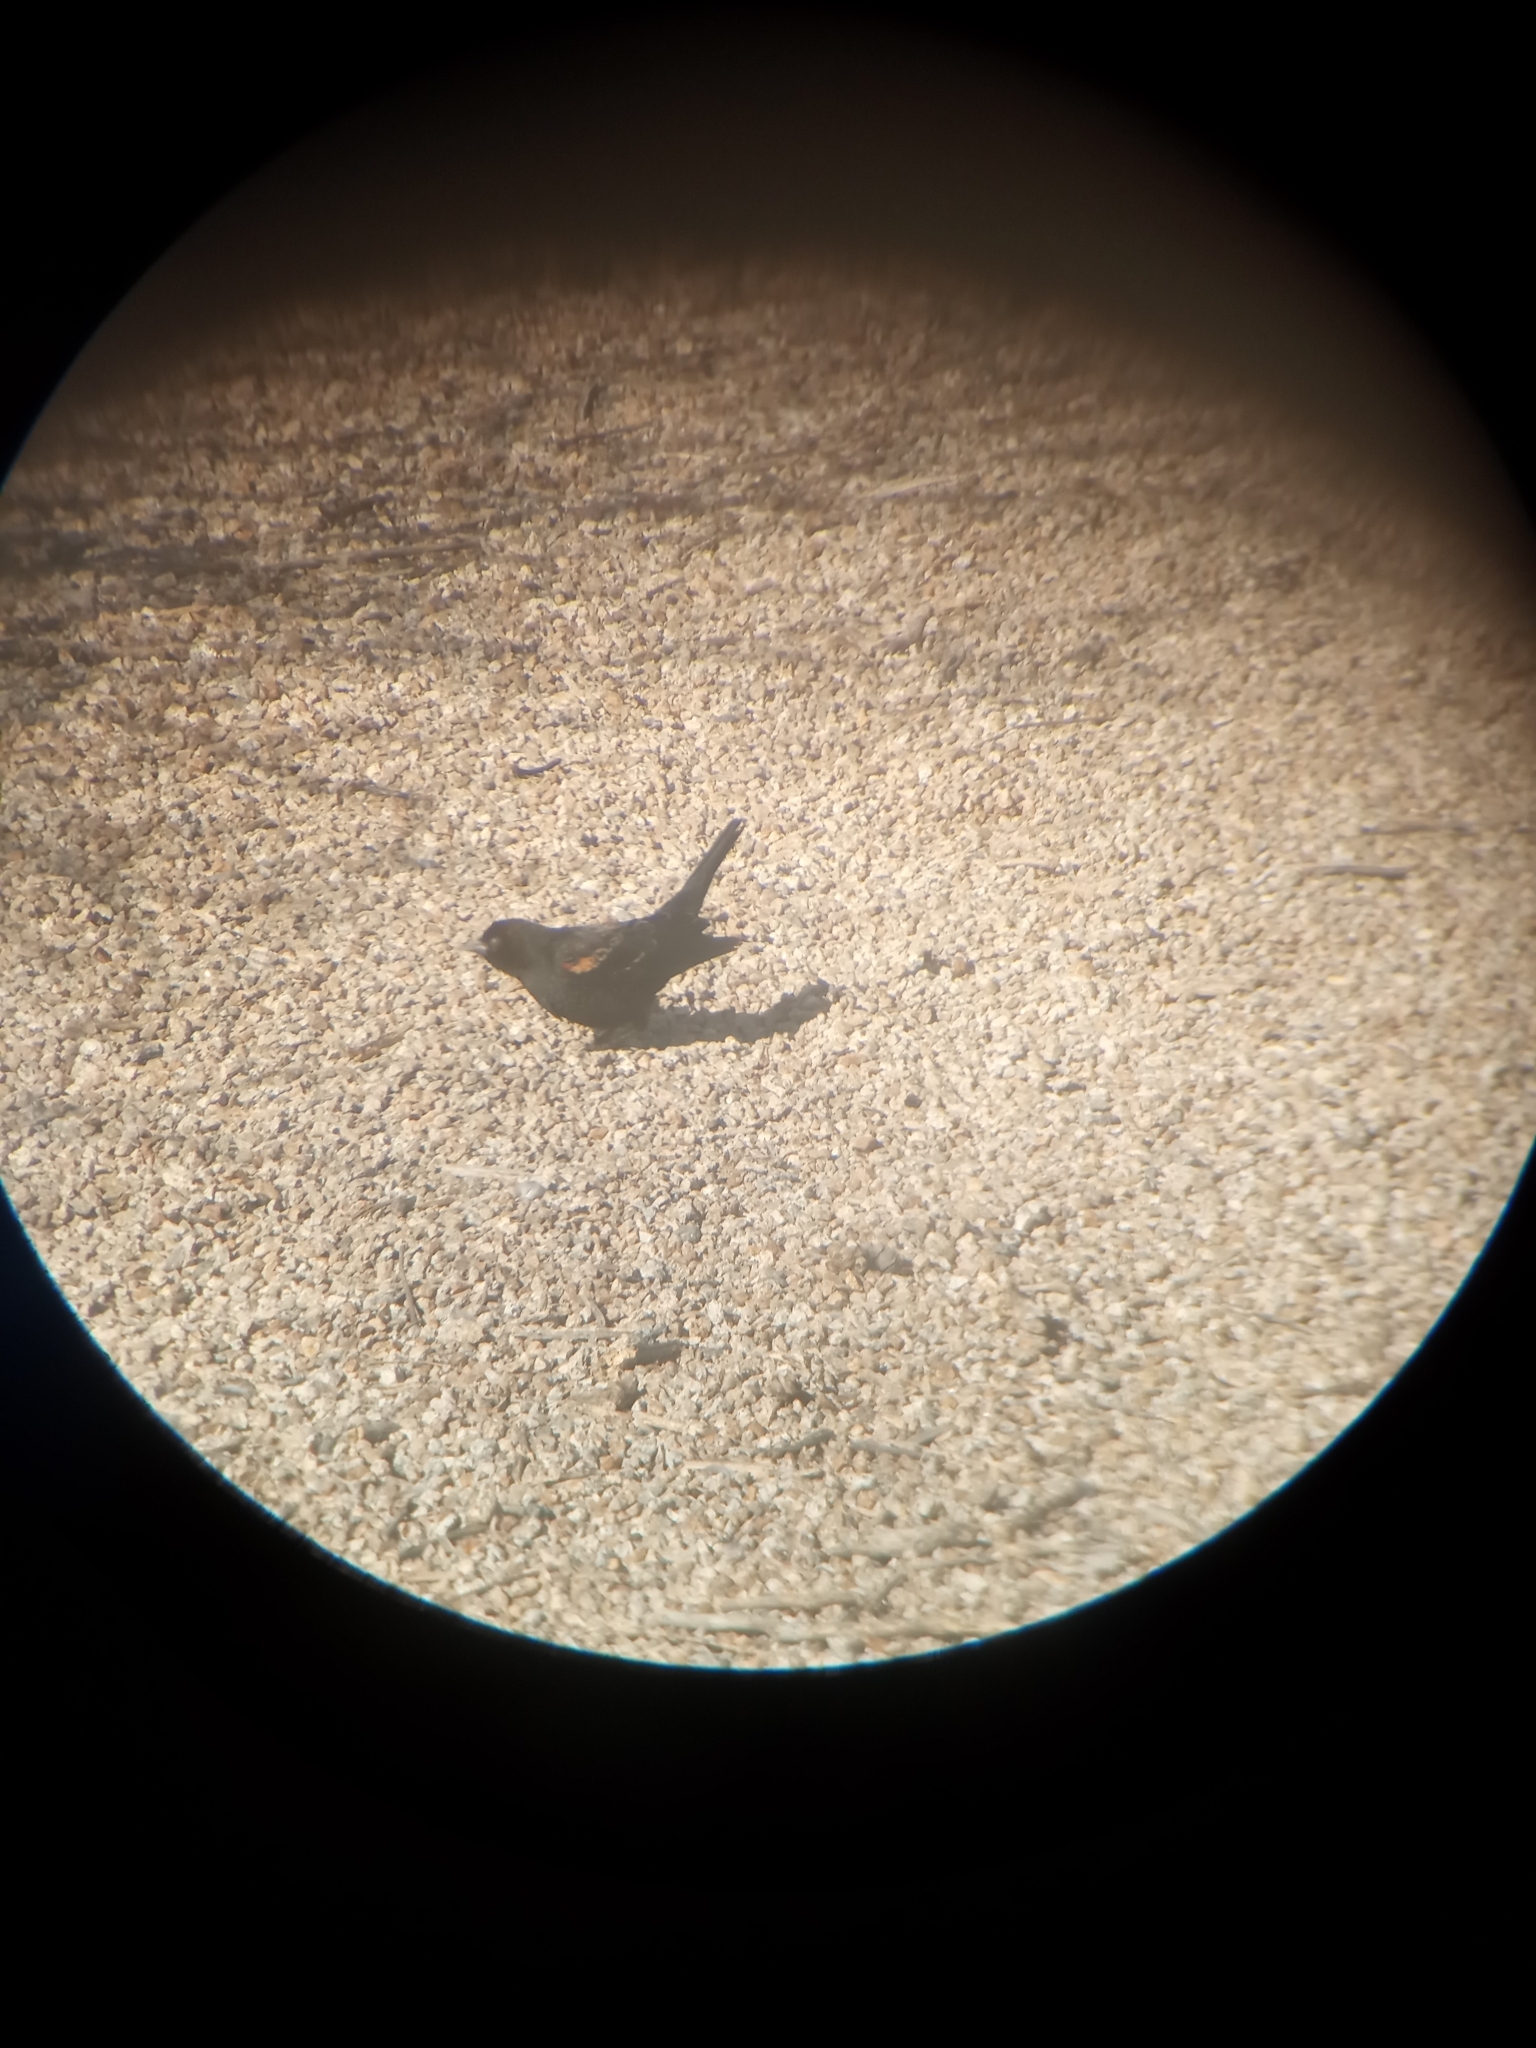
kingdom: Animalia
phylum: Chordata
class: Aves
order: Passeriformes
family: Icteridae
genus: Agelaius
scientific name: Agelaius phoeniceus
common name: Red-winged blackbird
